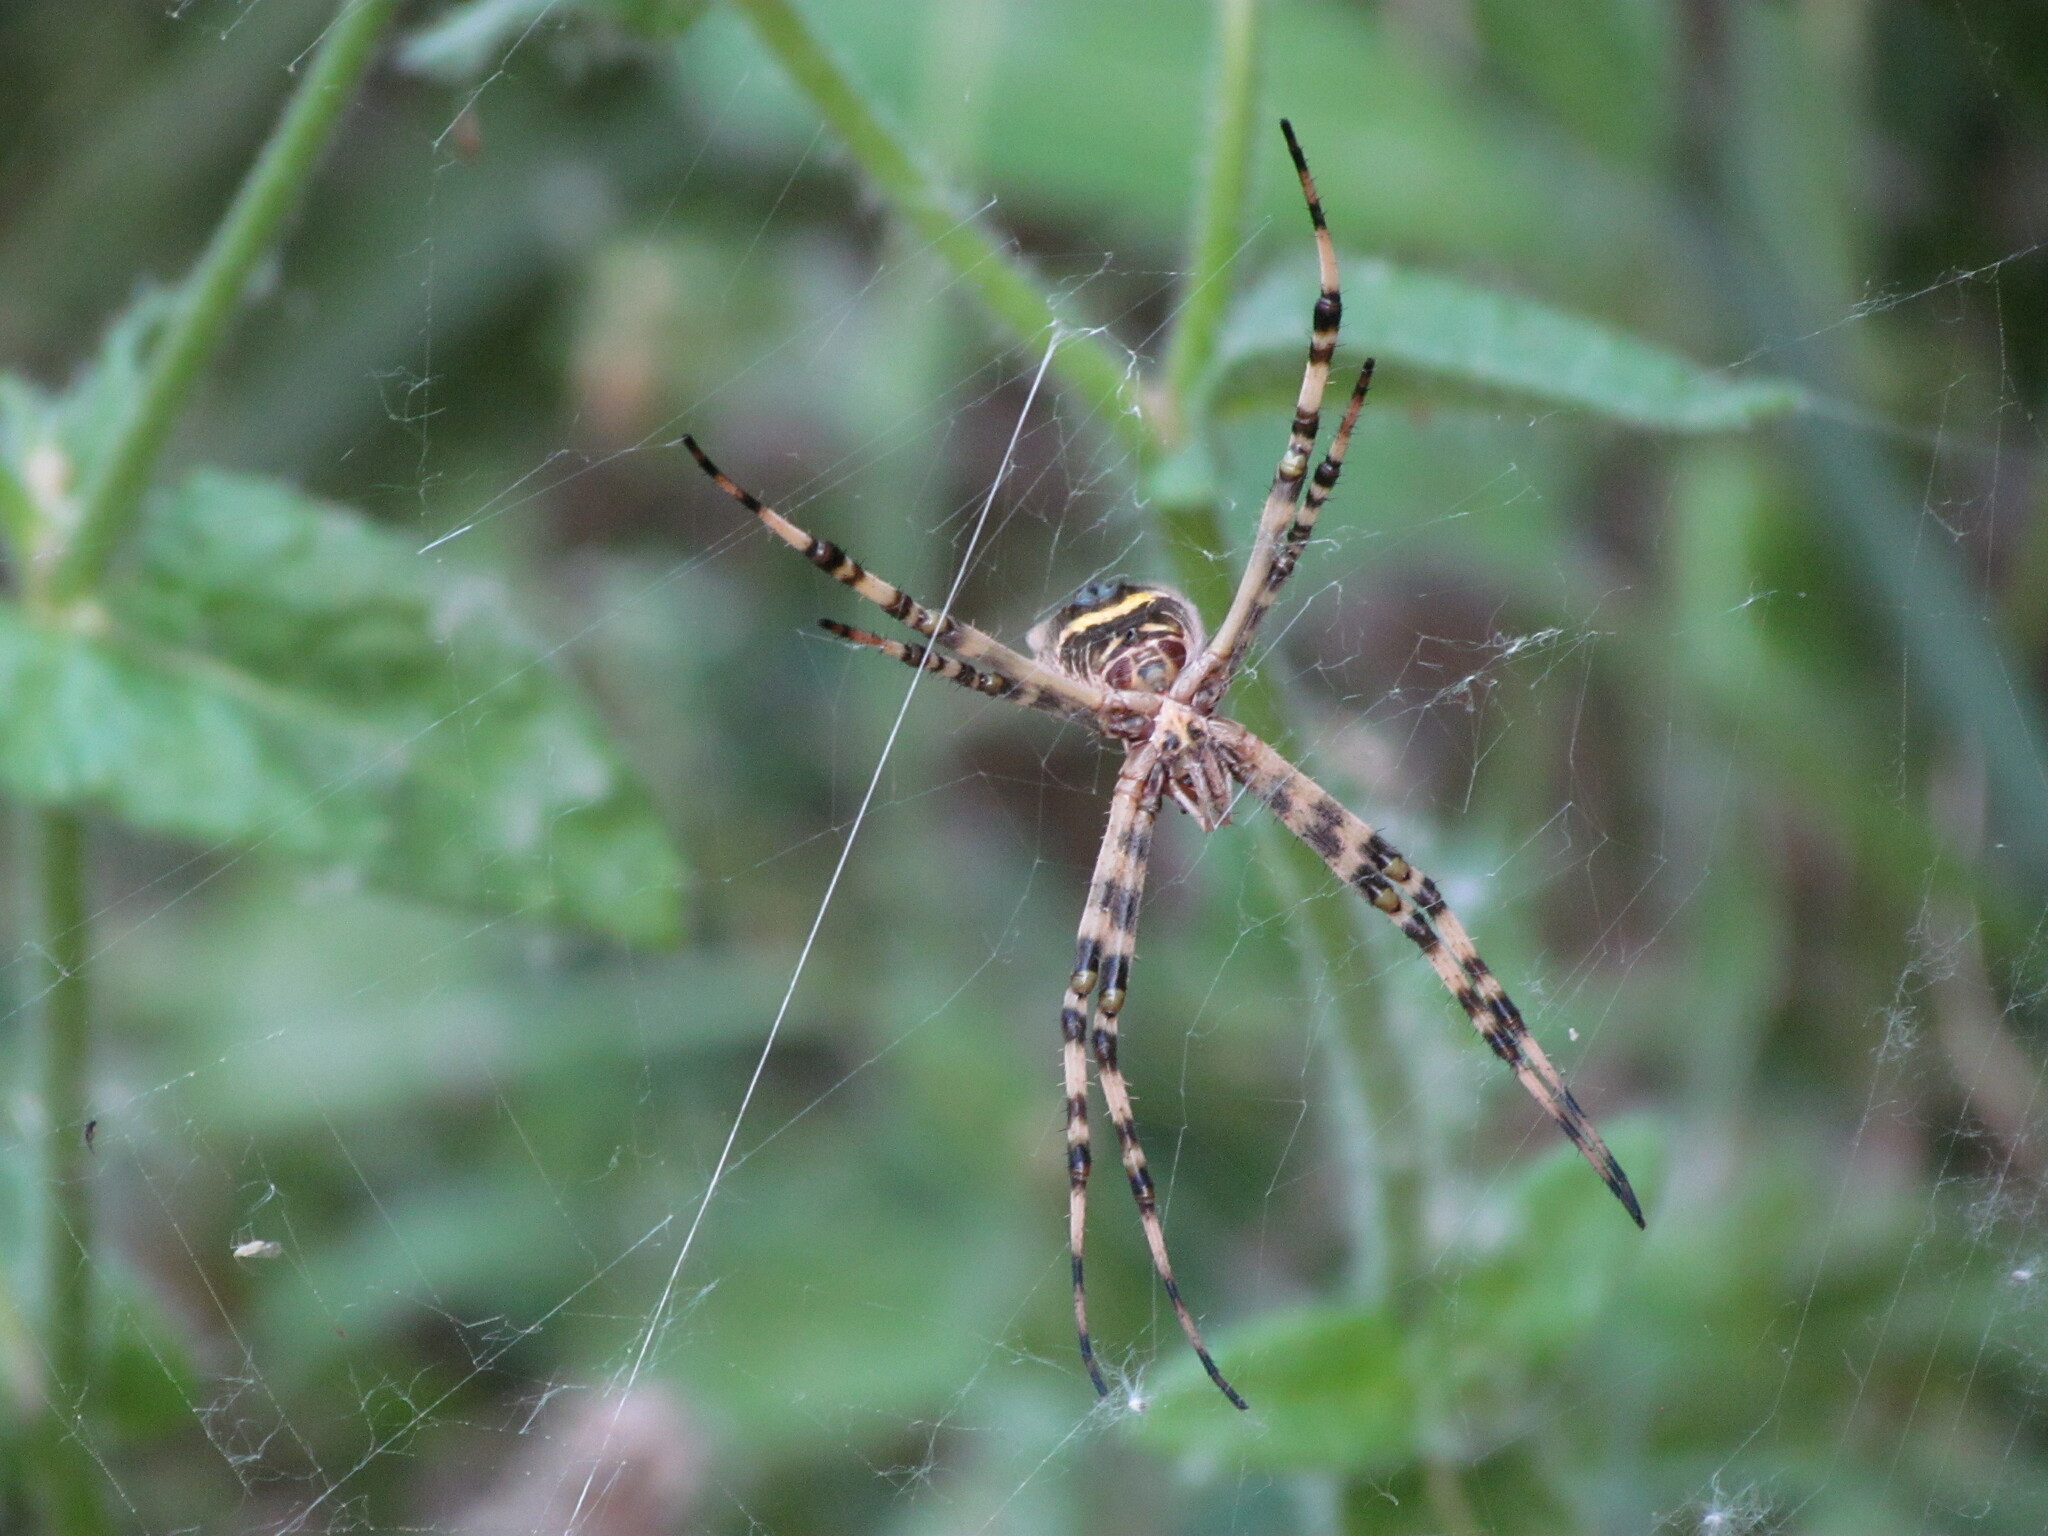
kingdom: Animalia
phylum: Arthropoda
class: Arachnida
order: Araneae
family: Araneidae
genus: Argiope
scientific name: Argiope argentata
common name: Orb weavers
